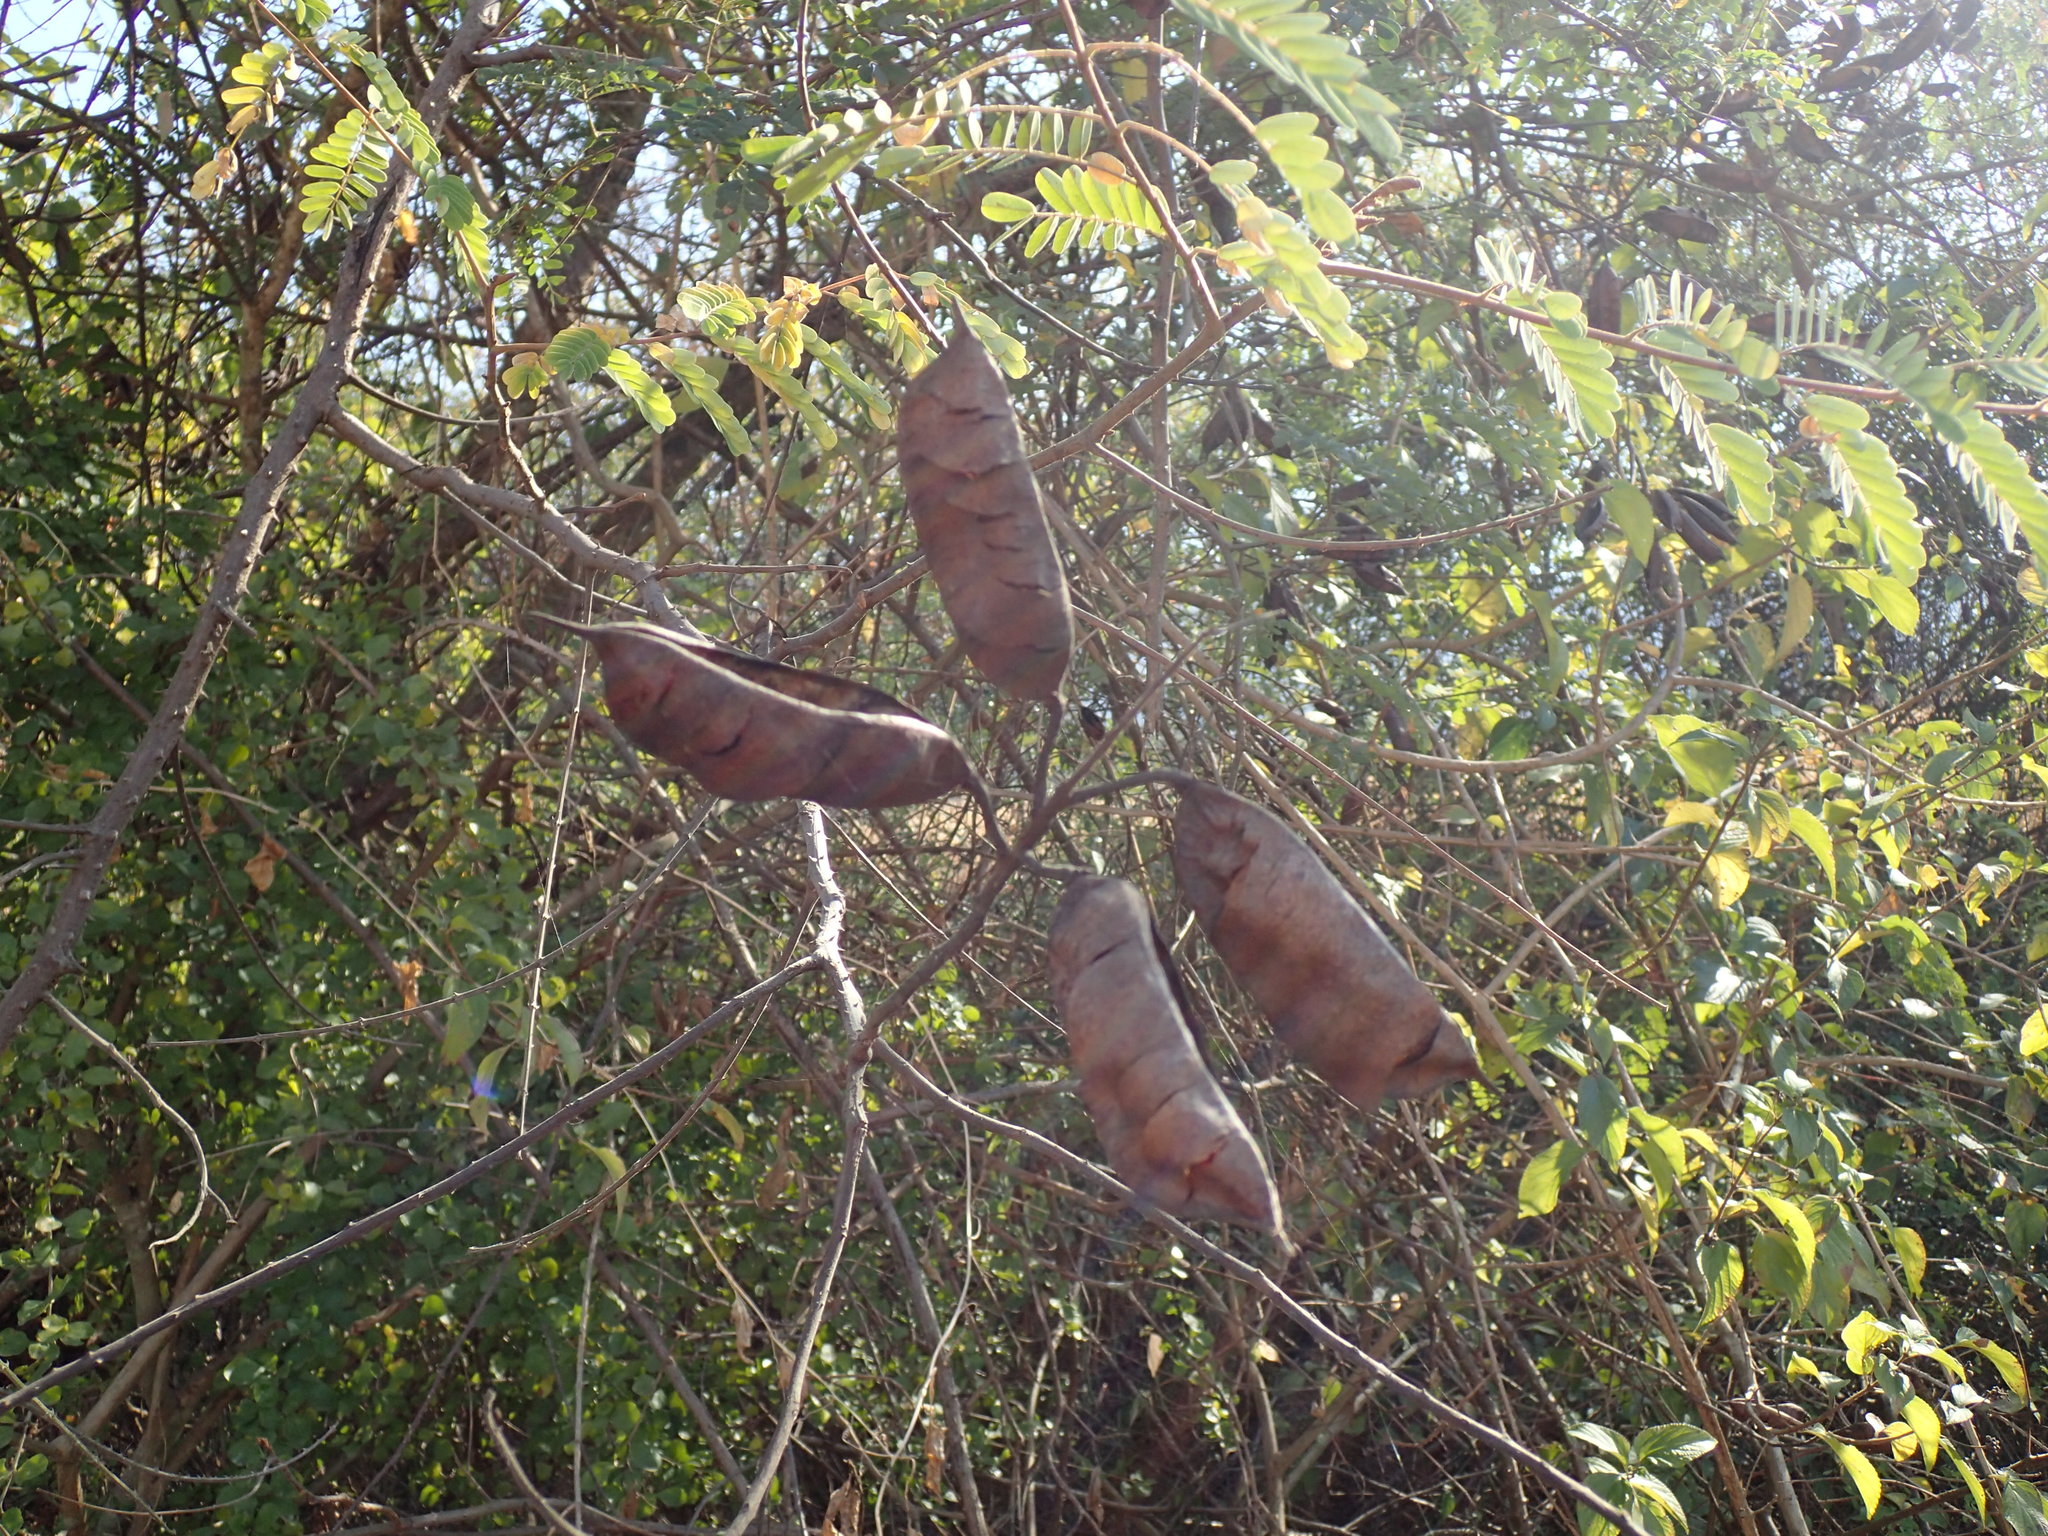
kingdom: Plantae
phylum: Tracheophyta
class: Magnoliopsida
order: Fabales
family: Fabaceae
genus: Biancaea
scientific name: Biancaea decapetala
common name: Cat's claw
